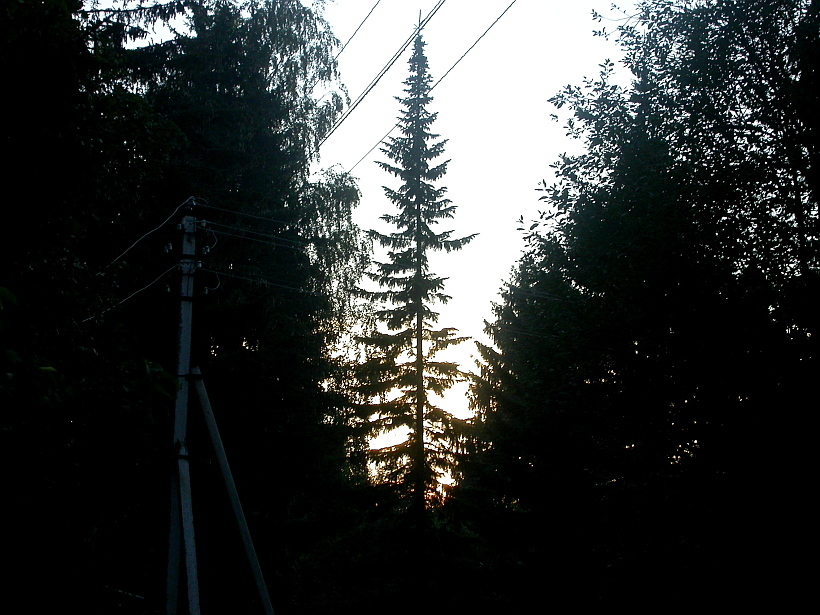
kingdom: Plantae
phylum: Tracheophyta
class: Pinopsida
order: Pinales
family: Pinaceae
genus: Picea
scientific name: Picea abies
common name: Norway spruce
